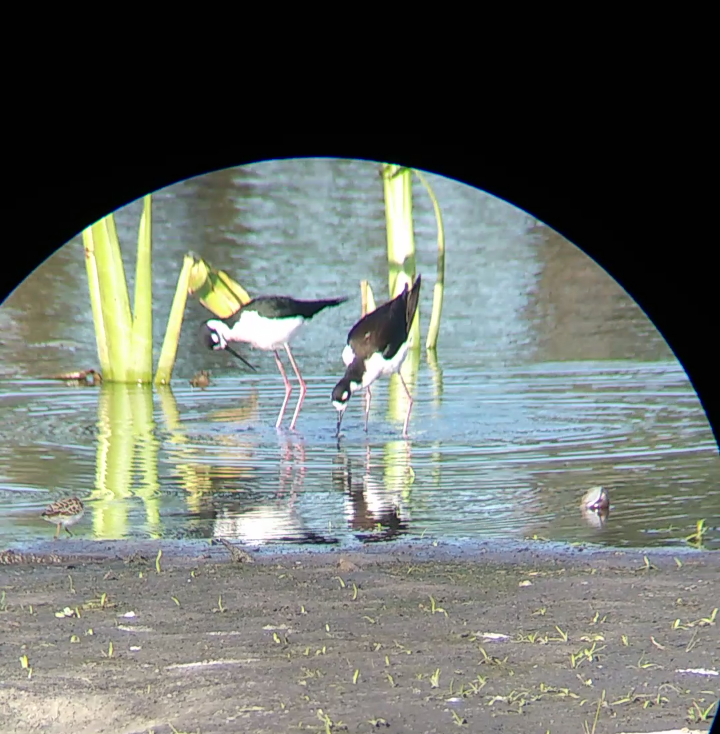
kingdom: Animalia
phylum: Chordata
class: Aves
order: Charadriiformes
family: Recurvirostridae
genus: Himantopus
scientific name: Himantopus mexicanus
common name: Black-necked stilt
